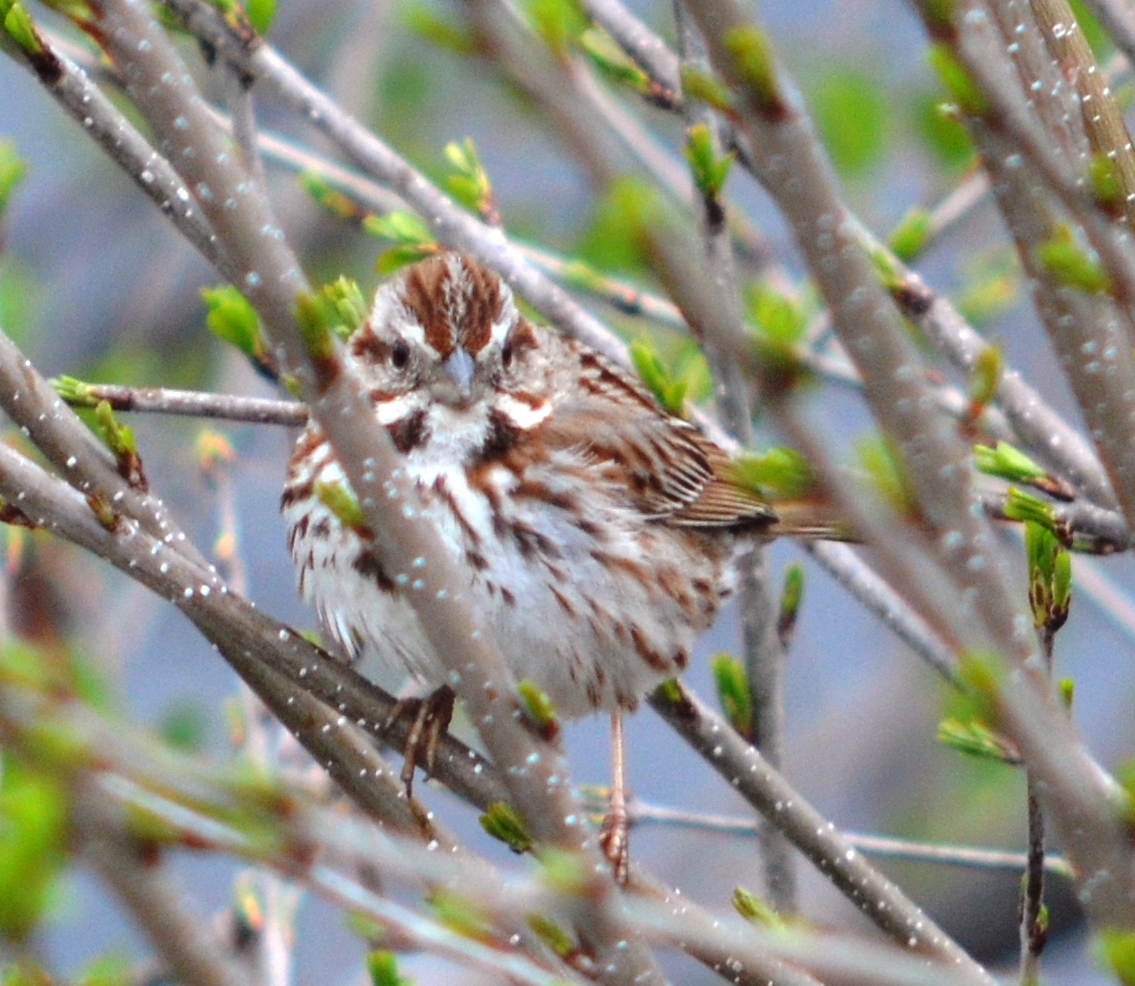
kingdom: Animalia
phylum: Chordata
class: Aves
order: Passeriformes
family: Passerellidae
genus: Melospiza
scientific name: Melospiza melodia
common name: Song sparrow
